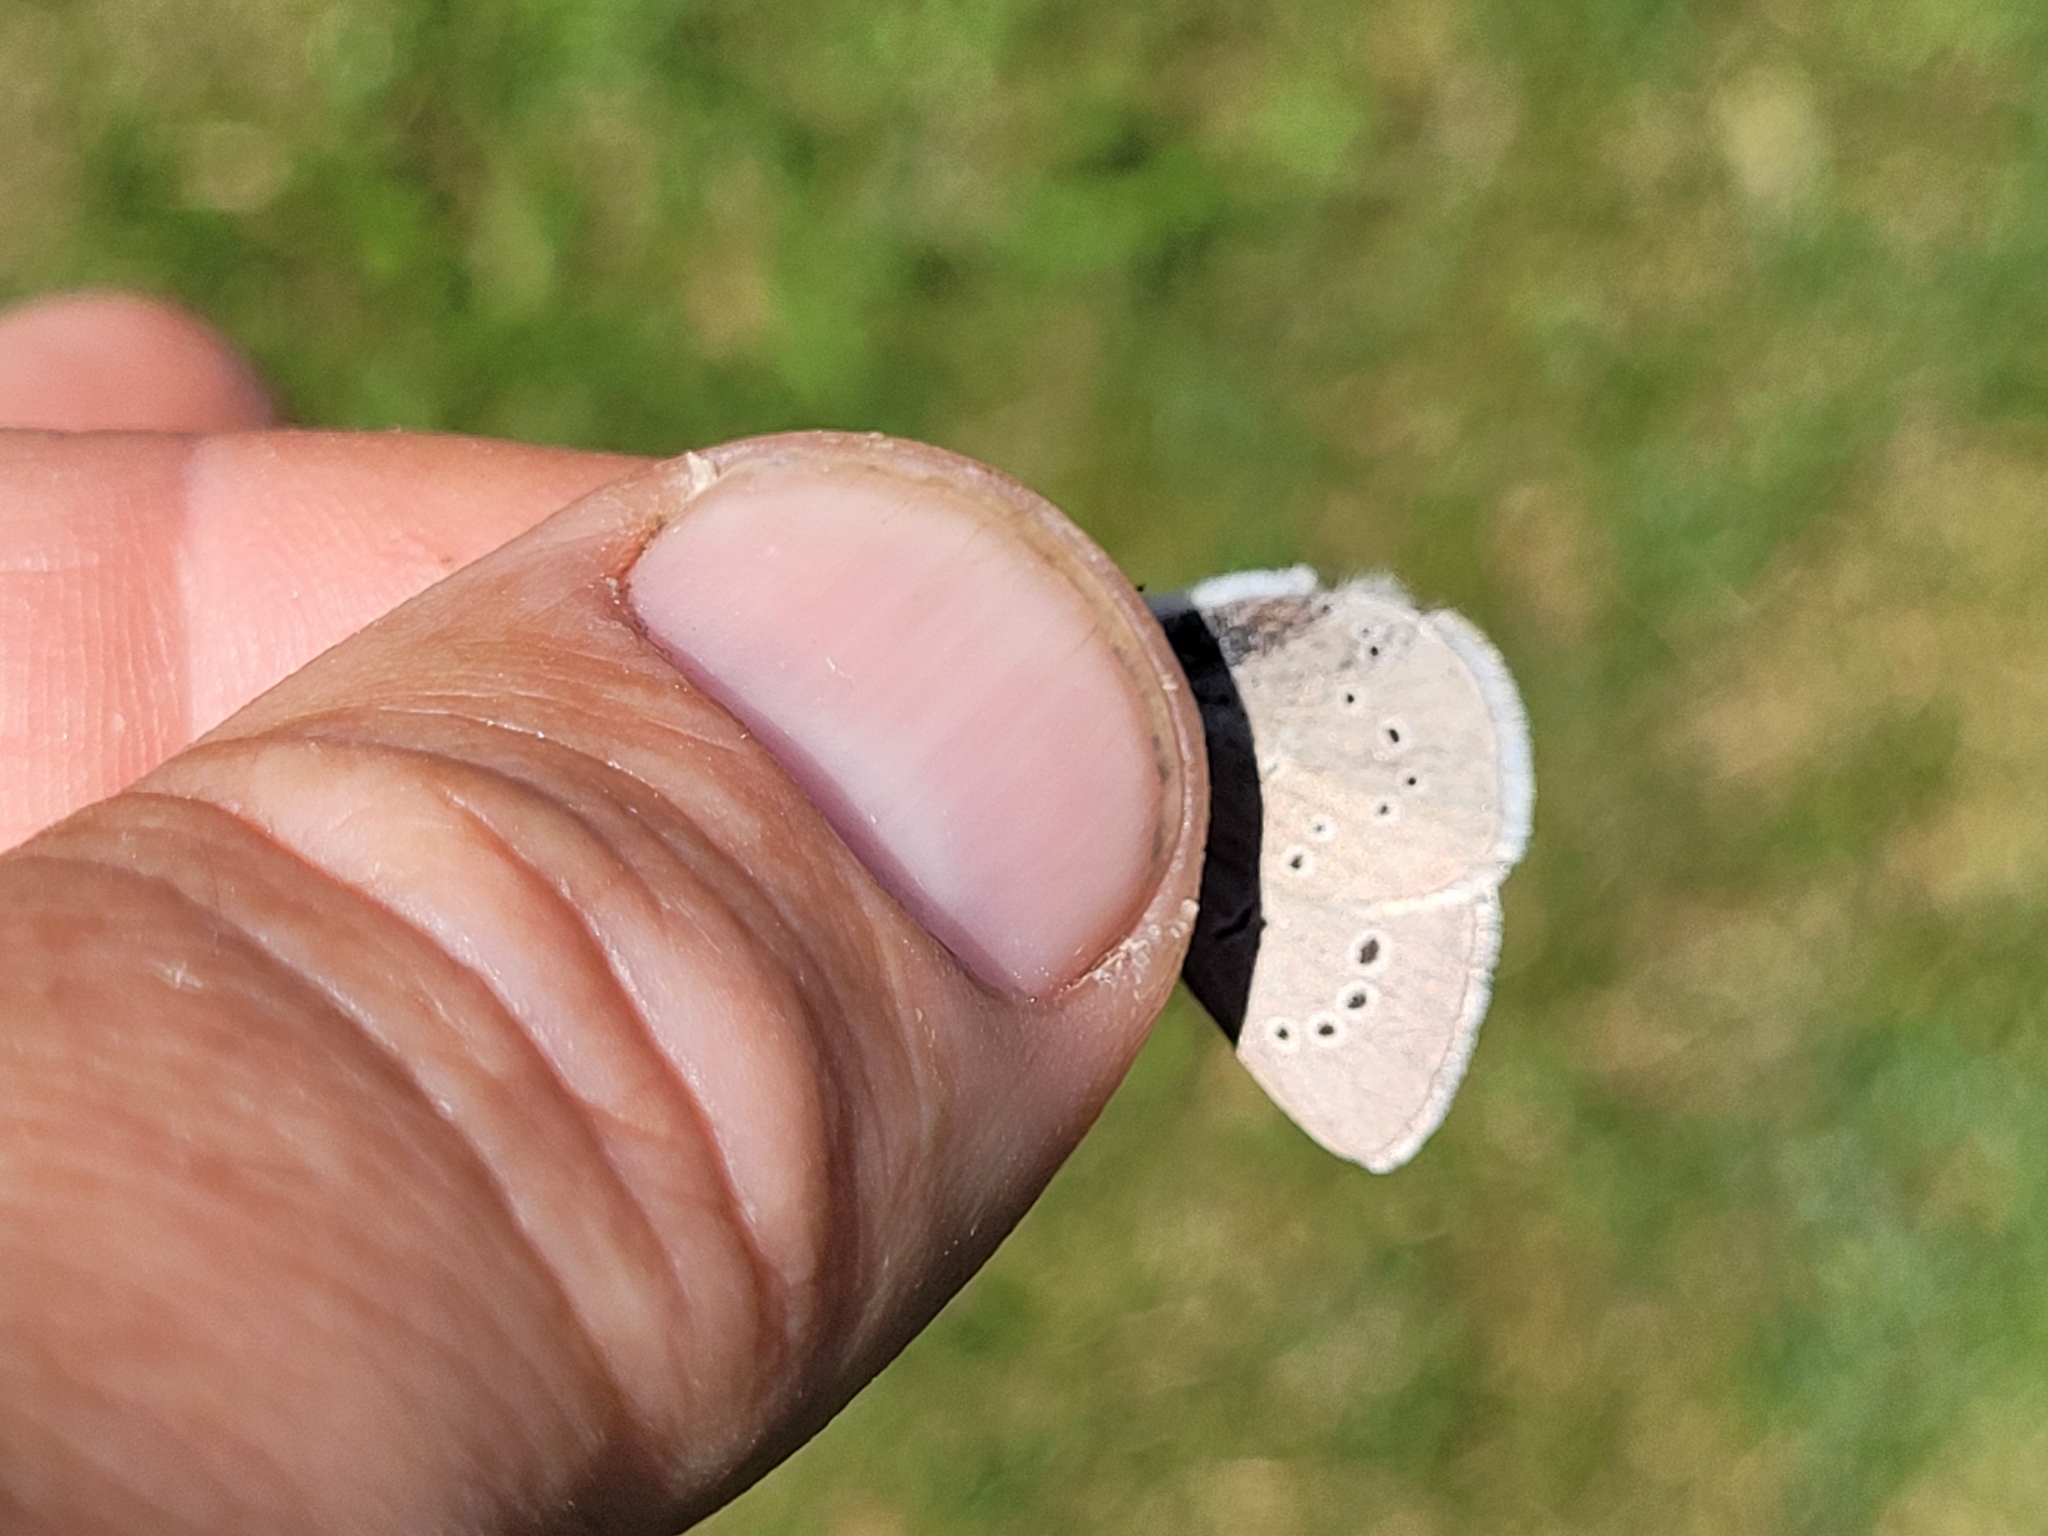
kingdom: Animalia
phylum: Arthropoda
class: Insecta
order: Lepidoptera
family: Lycaenidae
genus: Glaucopsyche
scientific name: Glaucopsyche lygdamus
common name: Silvery blue
